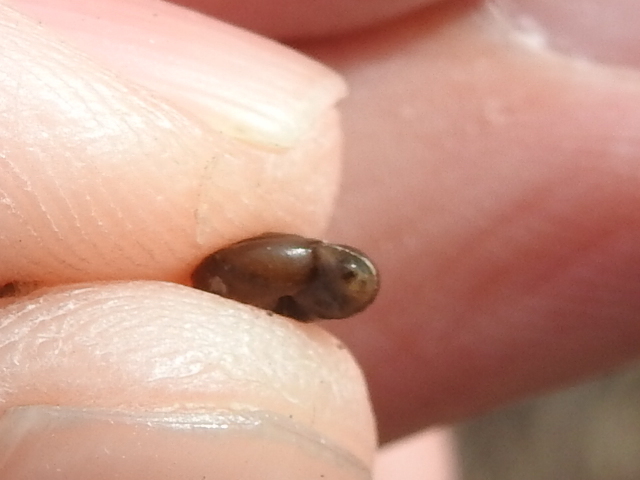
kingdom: Animalia
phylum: Mollusca
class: Gastropoda
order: Stylommatophora
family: Gastrodontidae
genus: Zonitoides
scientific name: Zonitoides arboreus
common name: Quick gloss
